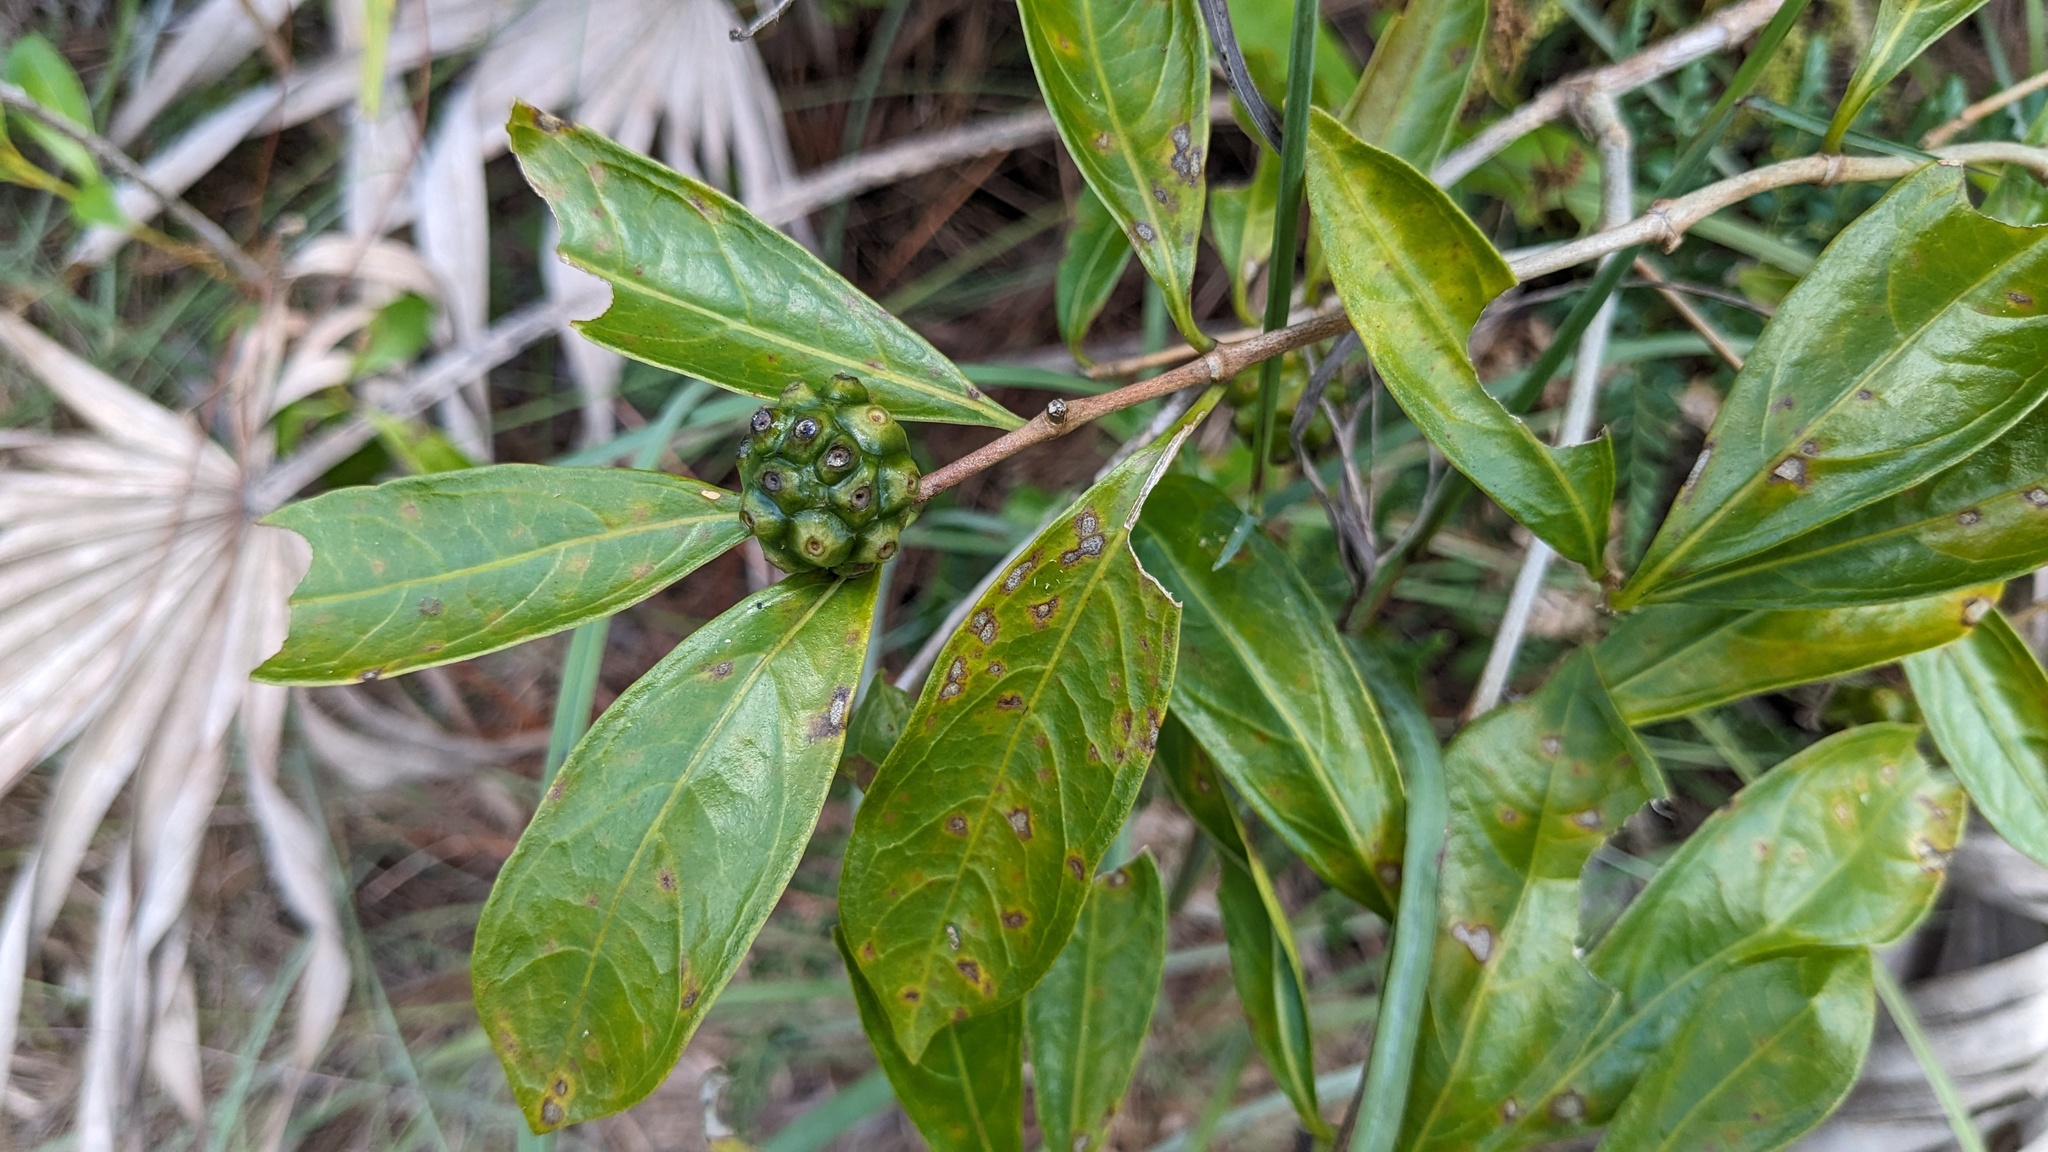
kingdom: Plantae
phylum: Tracheophyta
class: Magnoliopsida
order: Gentianales
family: Rubiaceae
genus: Morinda
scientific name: Morinda royoc
